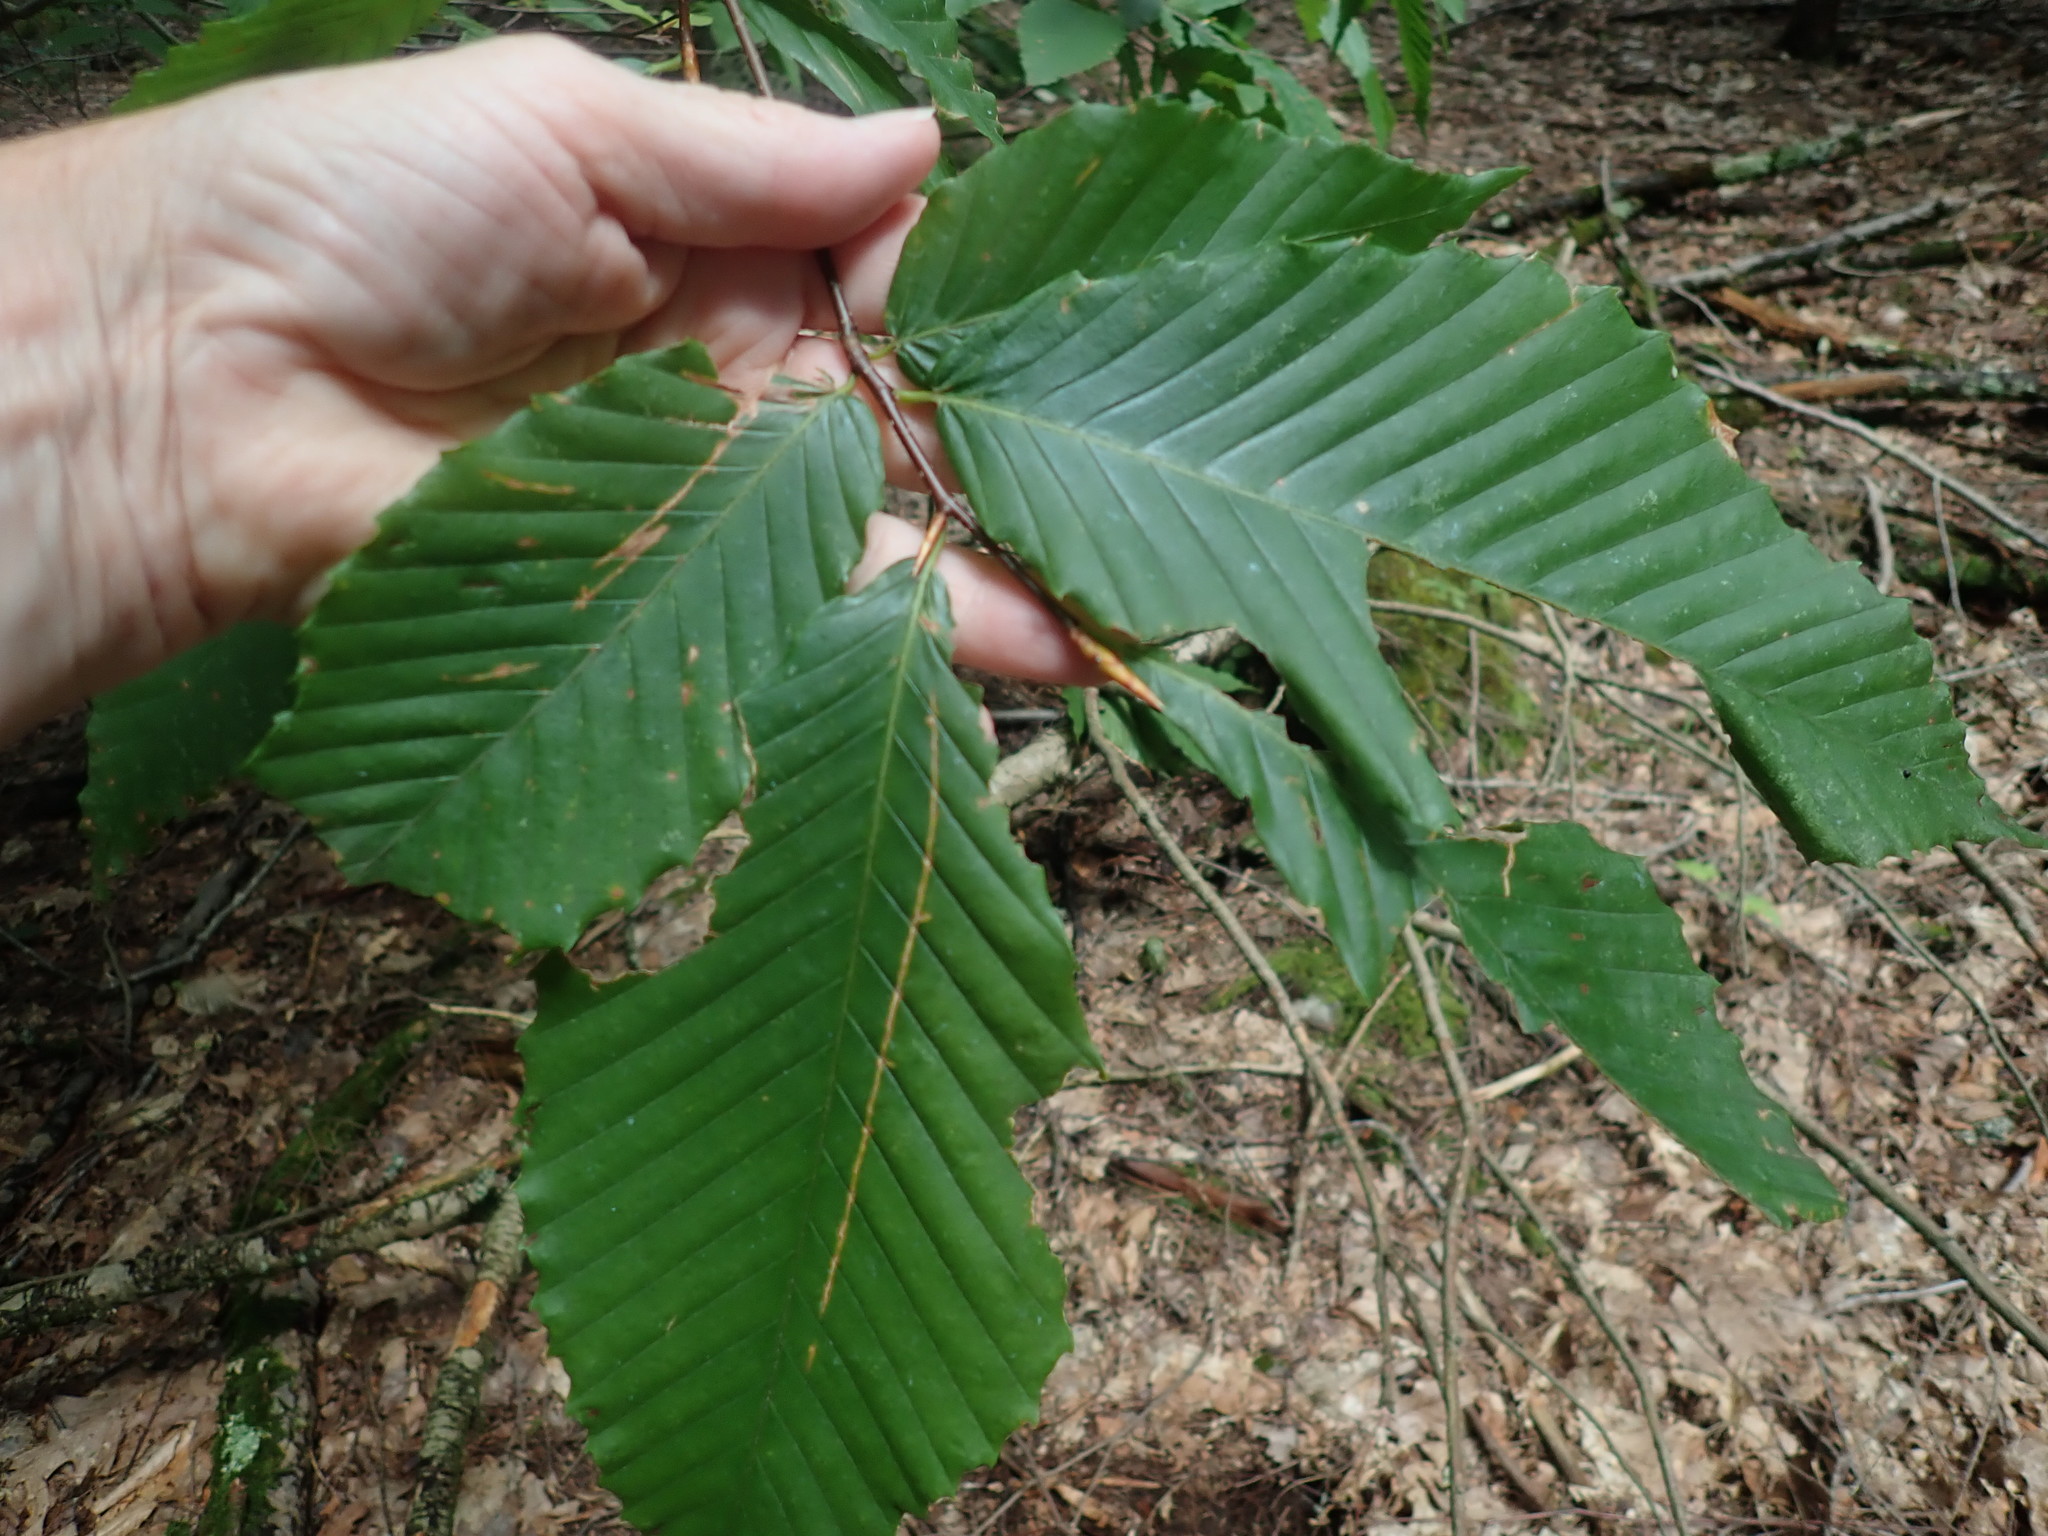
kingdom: Plantae
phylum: Tracheophyta
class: Magnoliopsida
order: Fagales
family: Fagaceae
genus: Fagus
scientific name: Fagus grandifolia
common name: American beech
